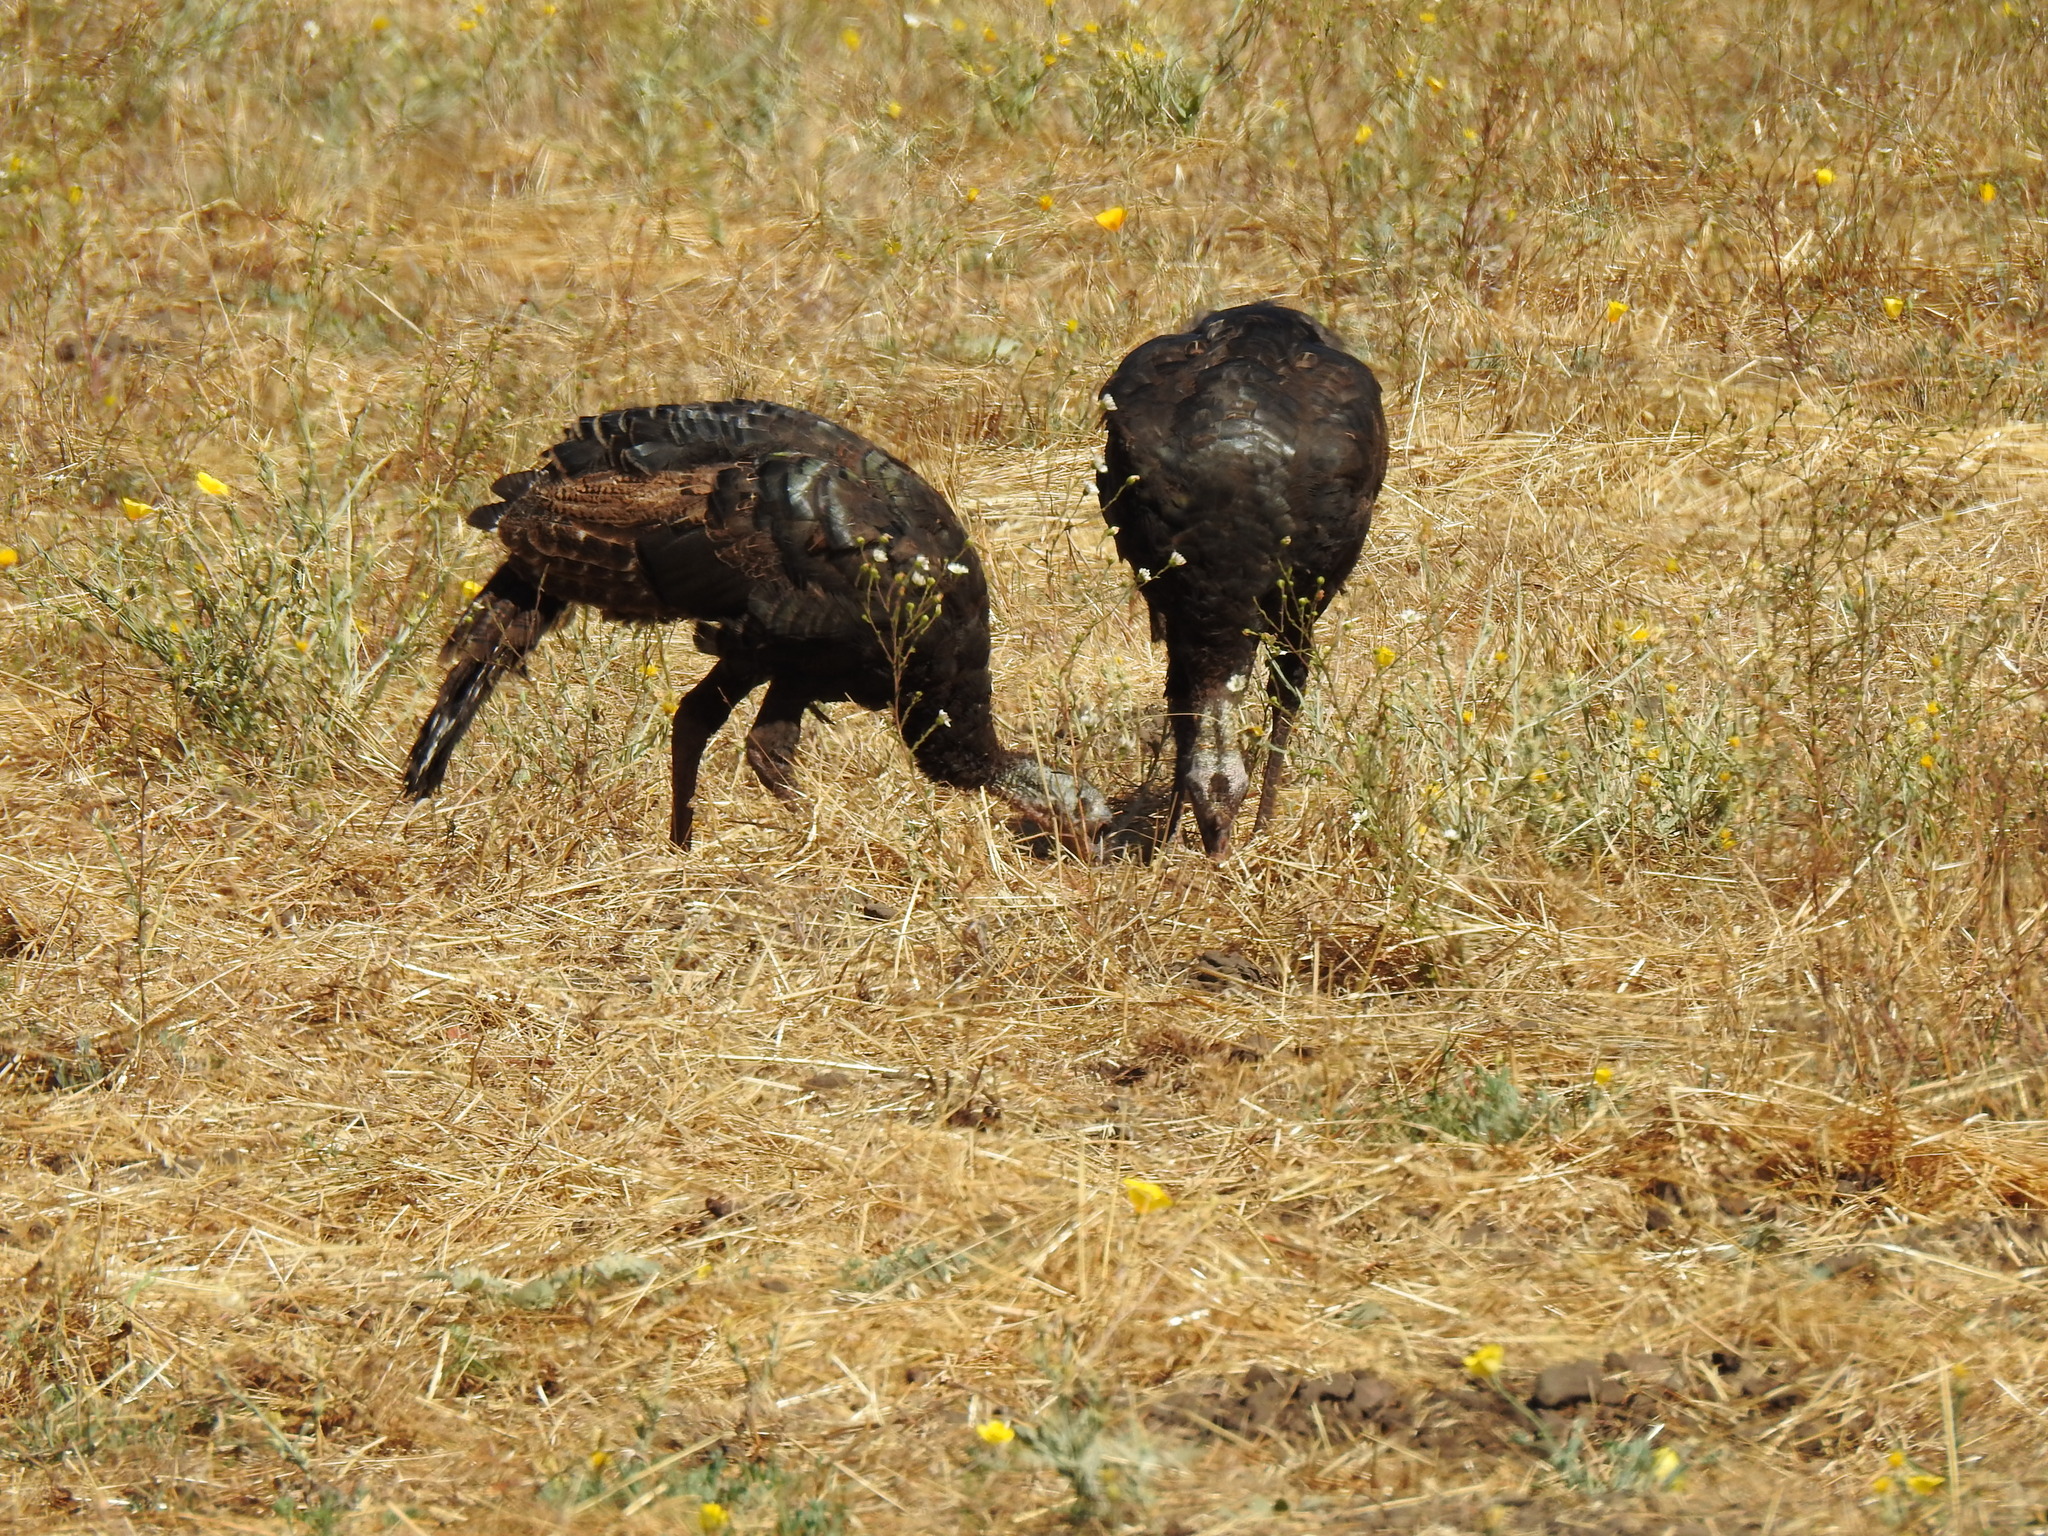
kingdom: Animalia
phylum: Chordata
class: Aves
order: Galliformes
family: Phasianidae
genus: Meleagris
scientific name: Meleagris gallopavo
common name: Wild turkey
